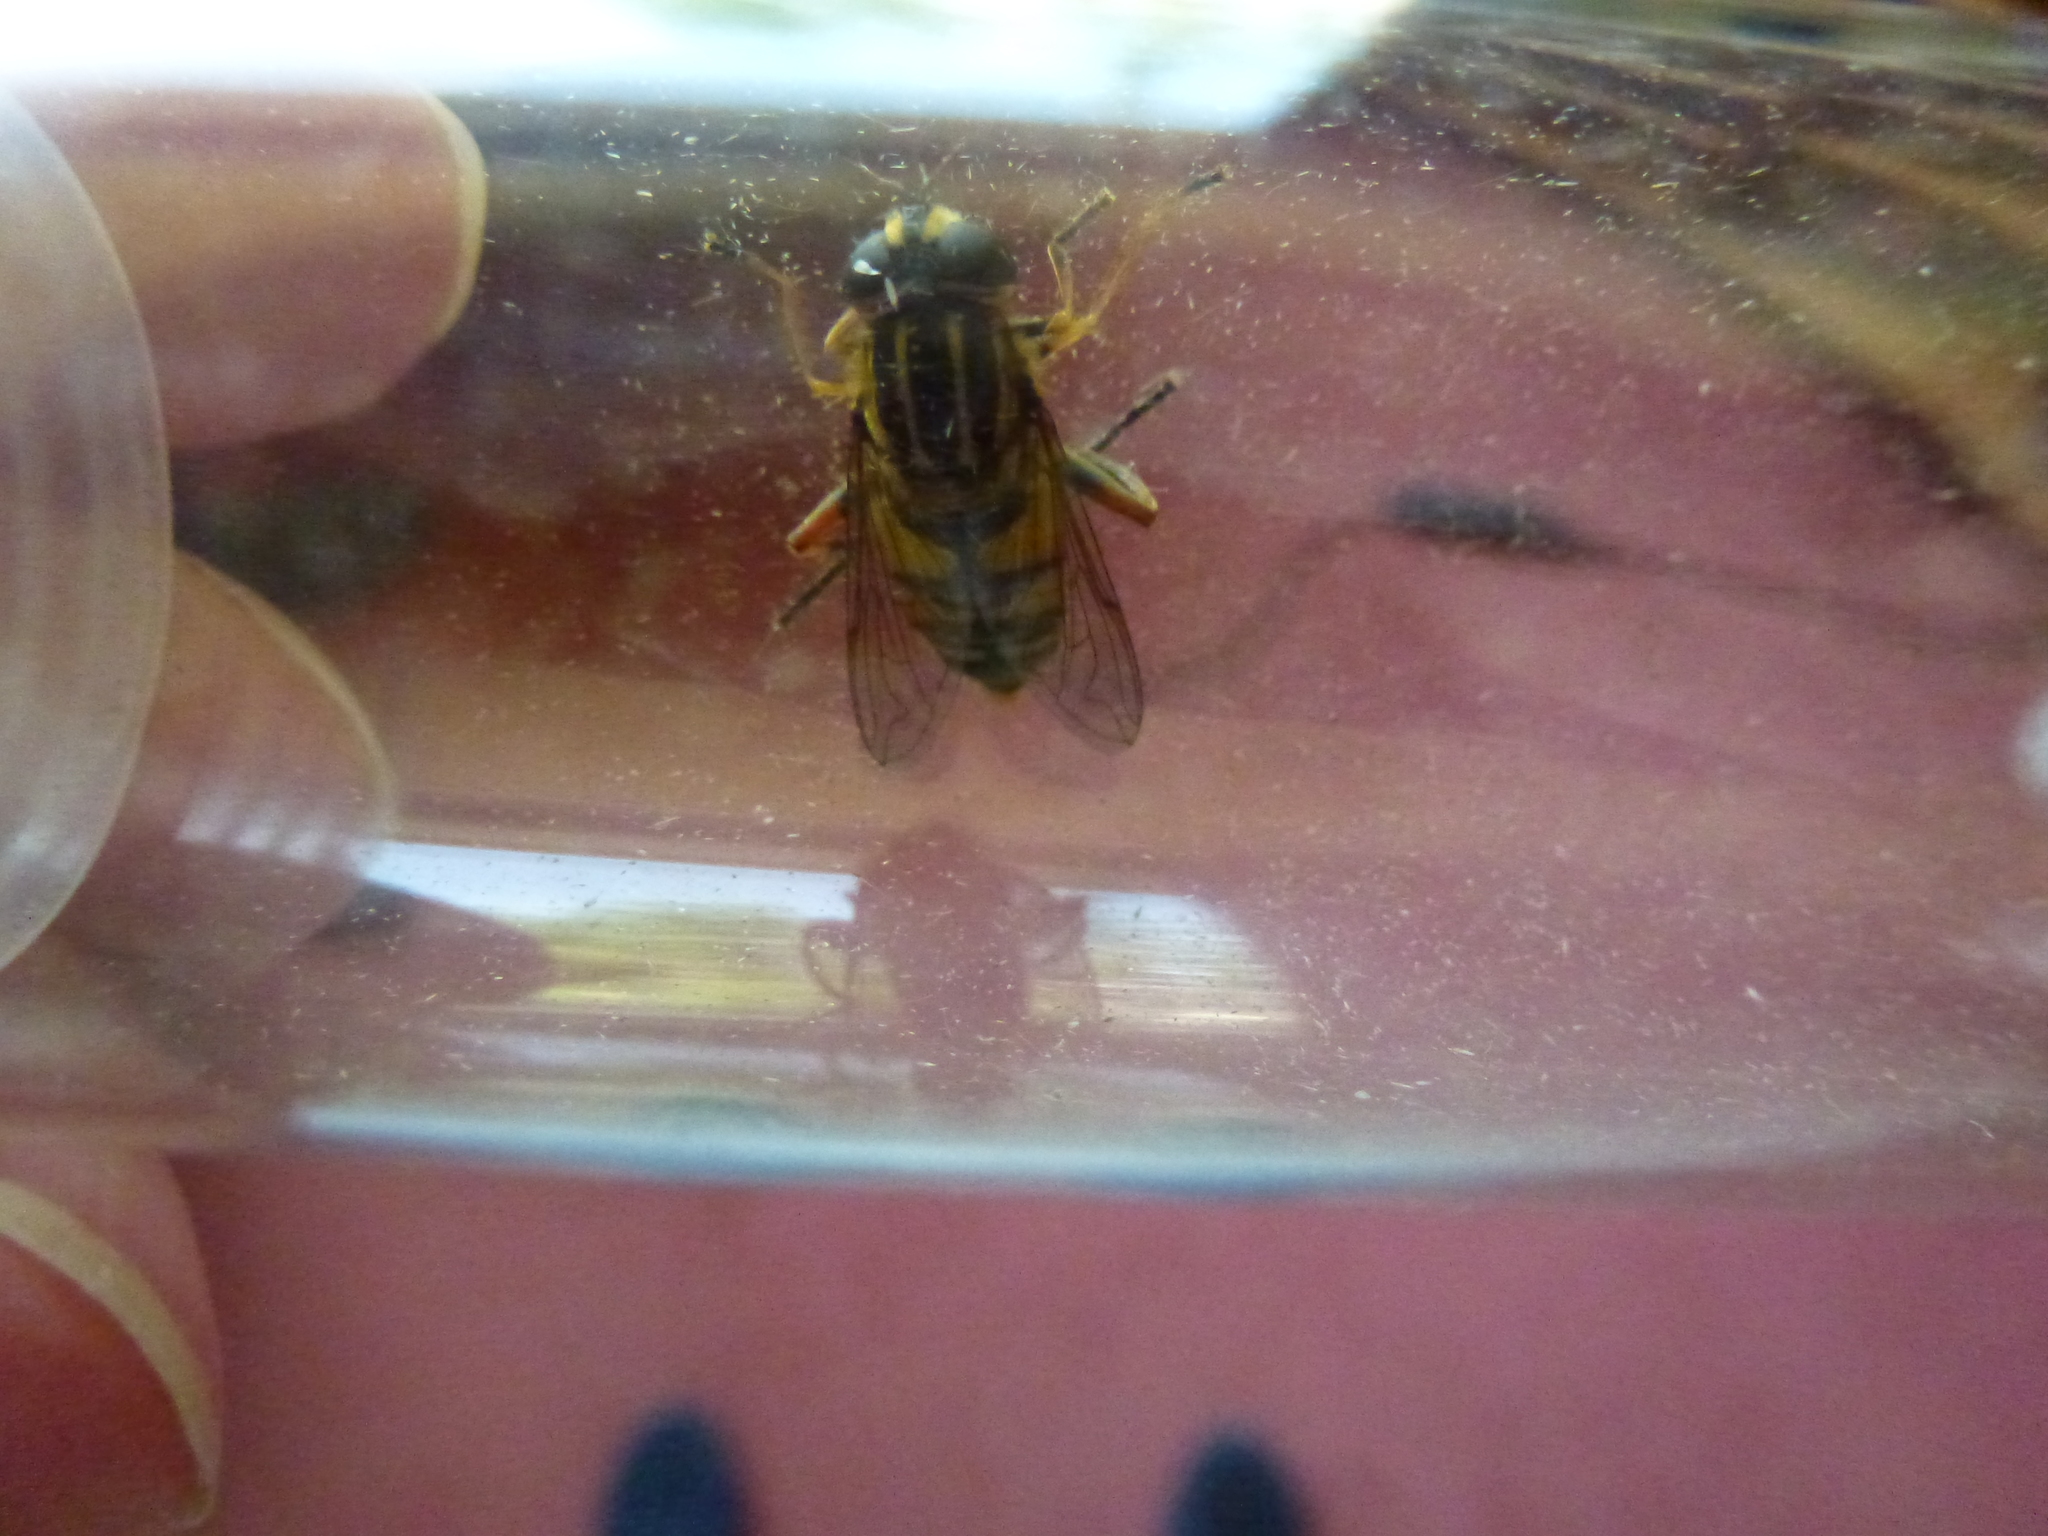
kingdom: Animalia
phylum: Arthropoda
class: Insecta
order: Diptera
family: Syrphidae
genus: Helophilus
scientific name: Helophilus pendulus
